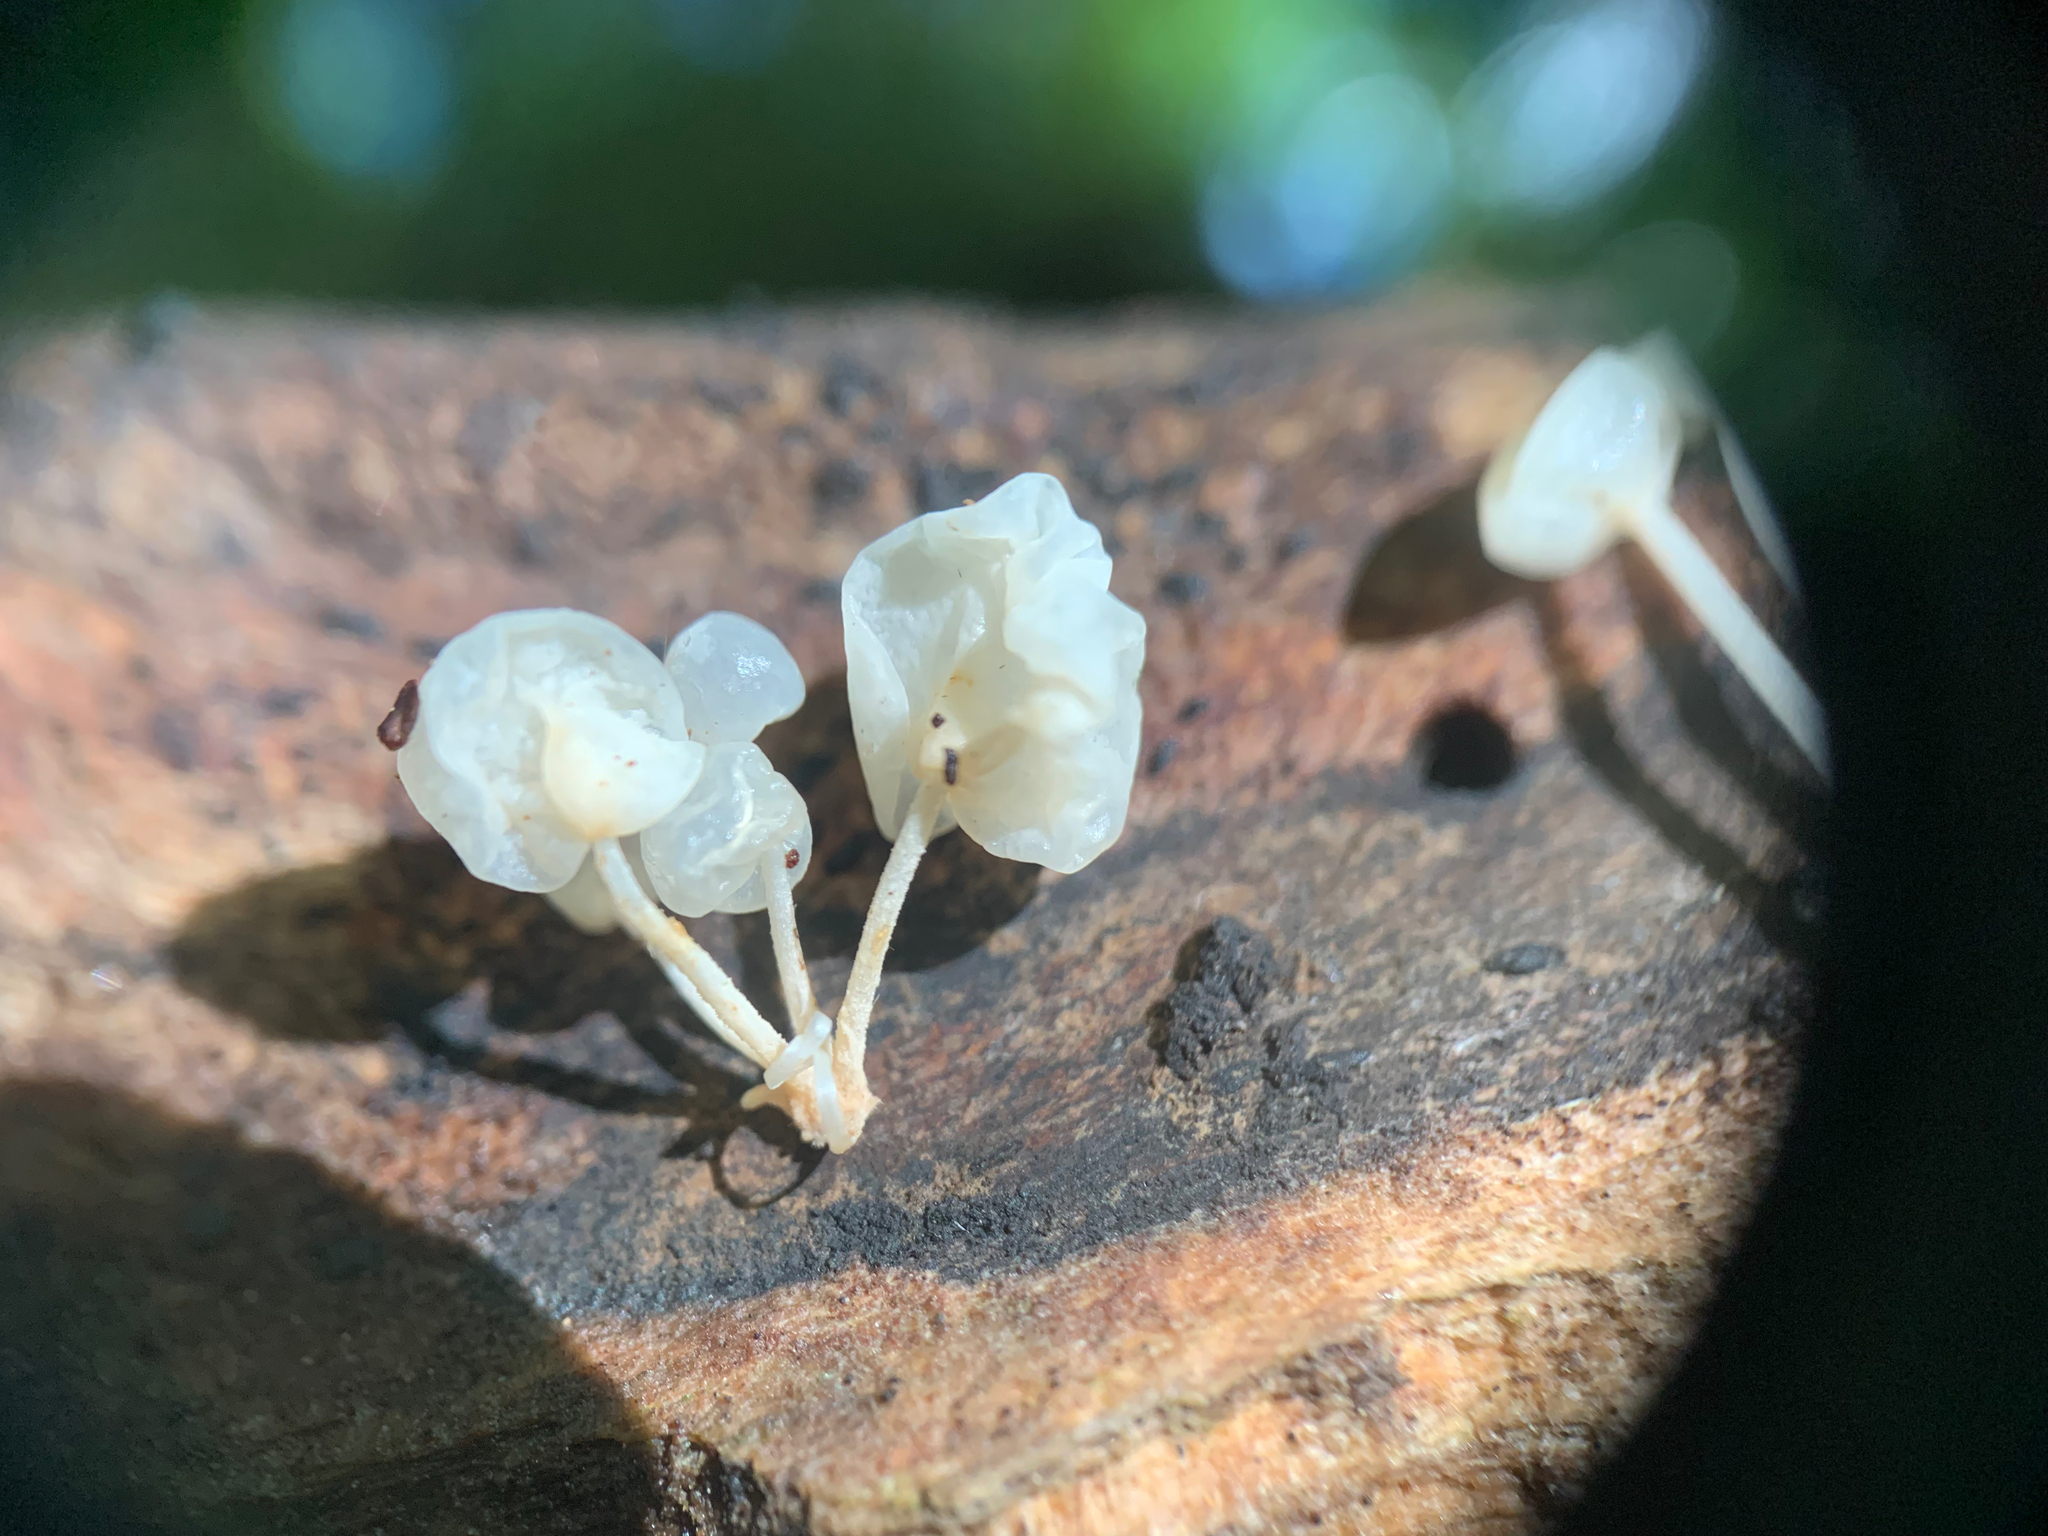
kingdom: Fungi
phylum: Basidiomycota
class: Agaricomycetes
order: Agaricales
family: Physalacriaceae
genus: Physalacria
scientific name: Physalacria inflata
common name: Bladder stalks
